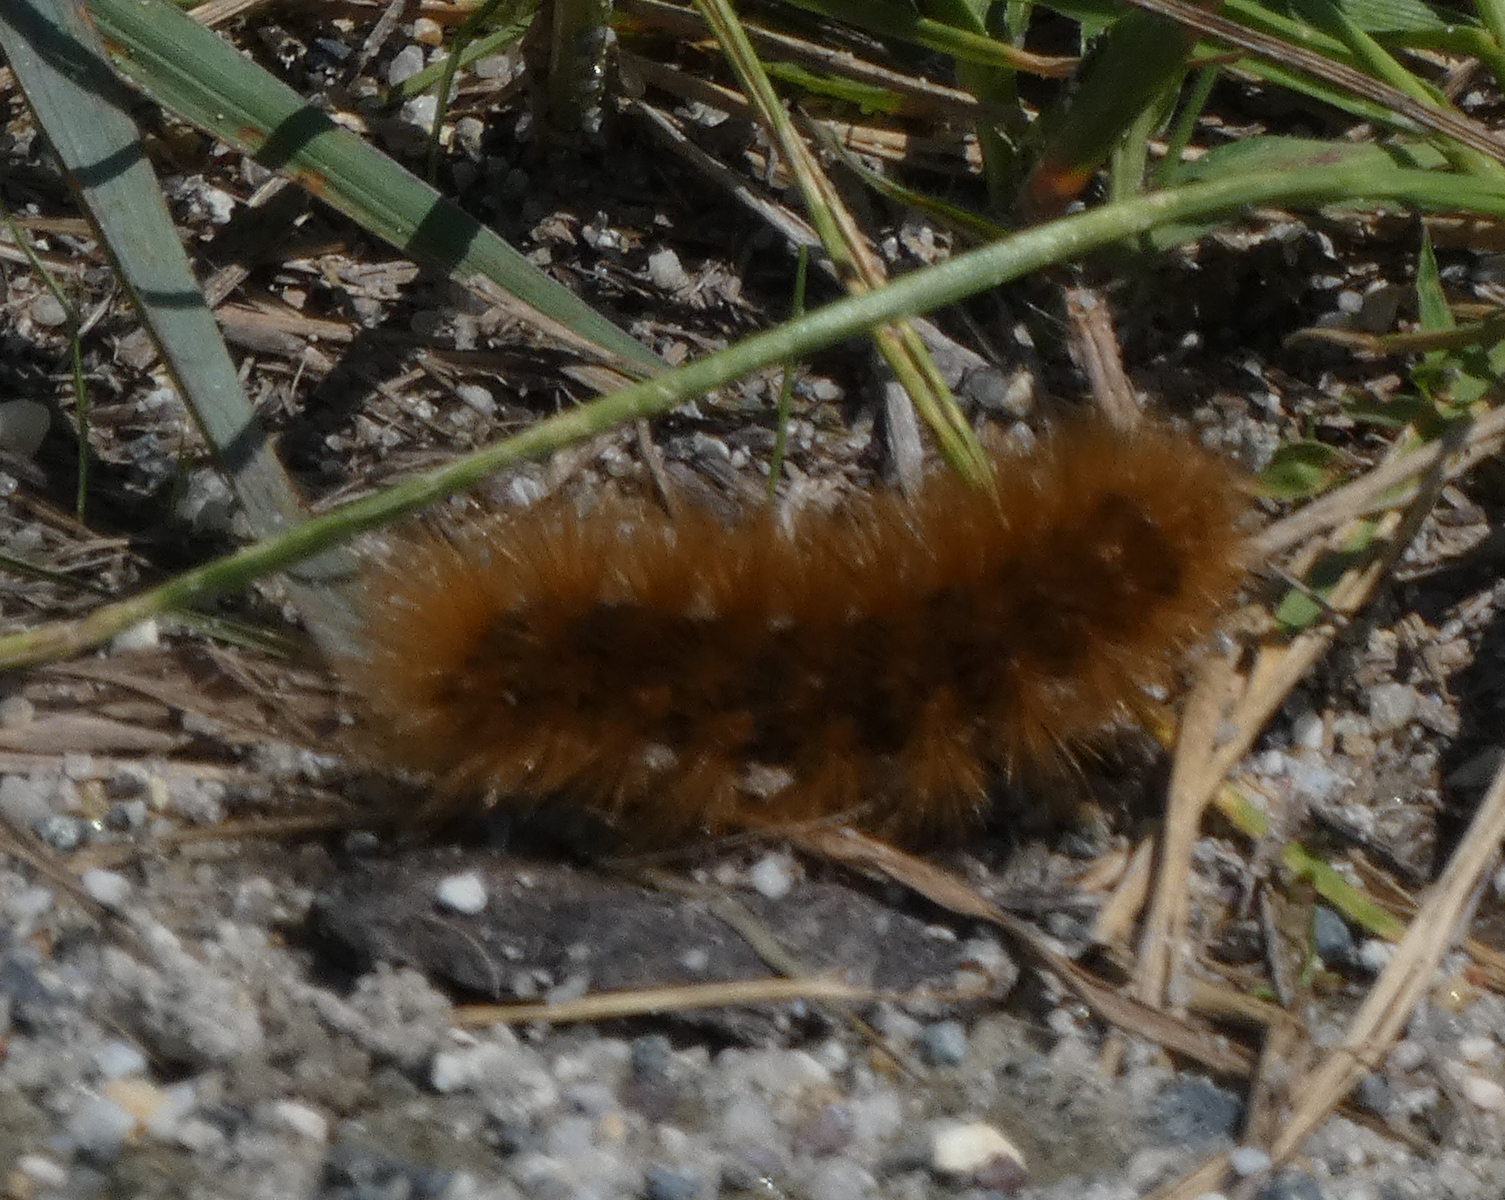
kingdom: Animalia
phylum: Arthropoda
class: Insecta
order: Lepidoptera
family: Erebidae
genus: Spilosoma
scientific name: Spilosoma virginica
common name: Virginia tiger moth
